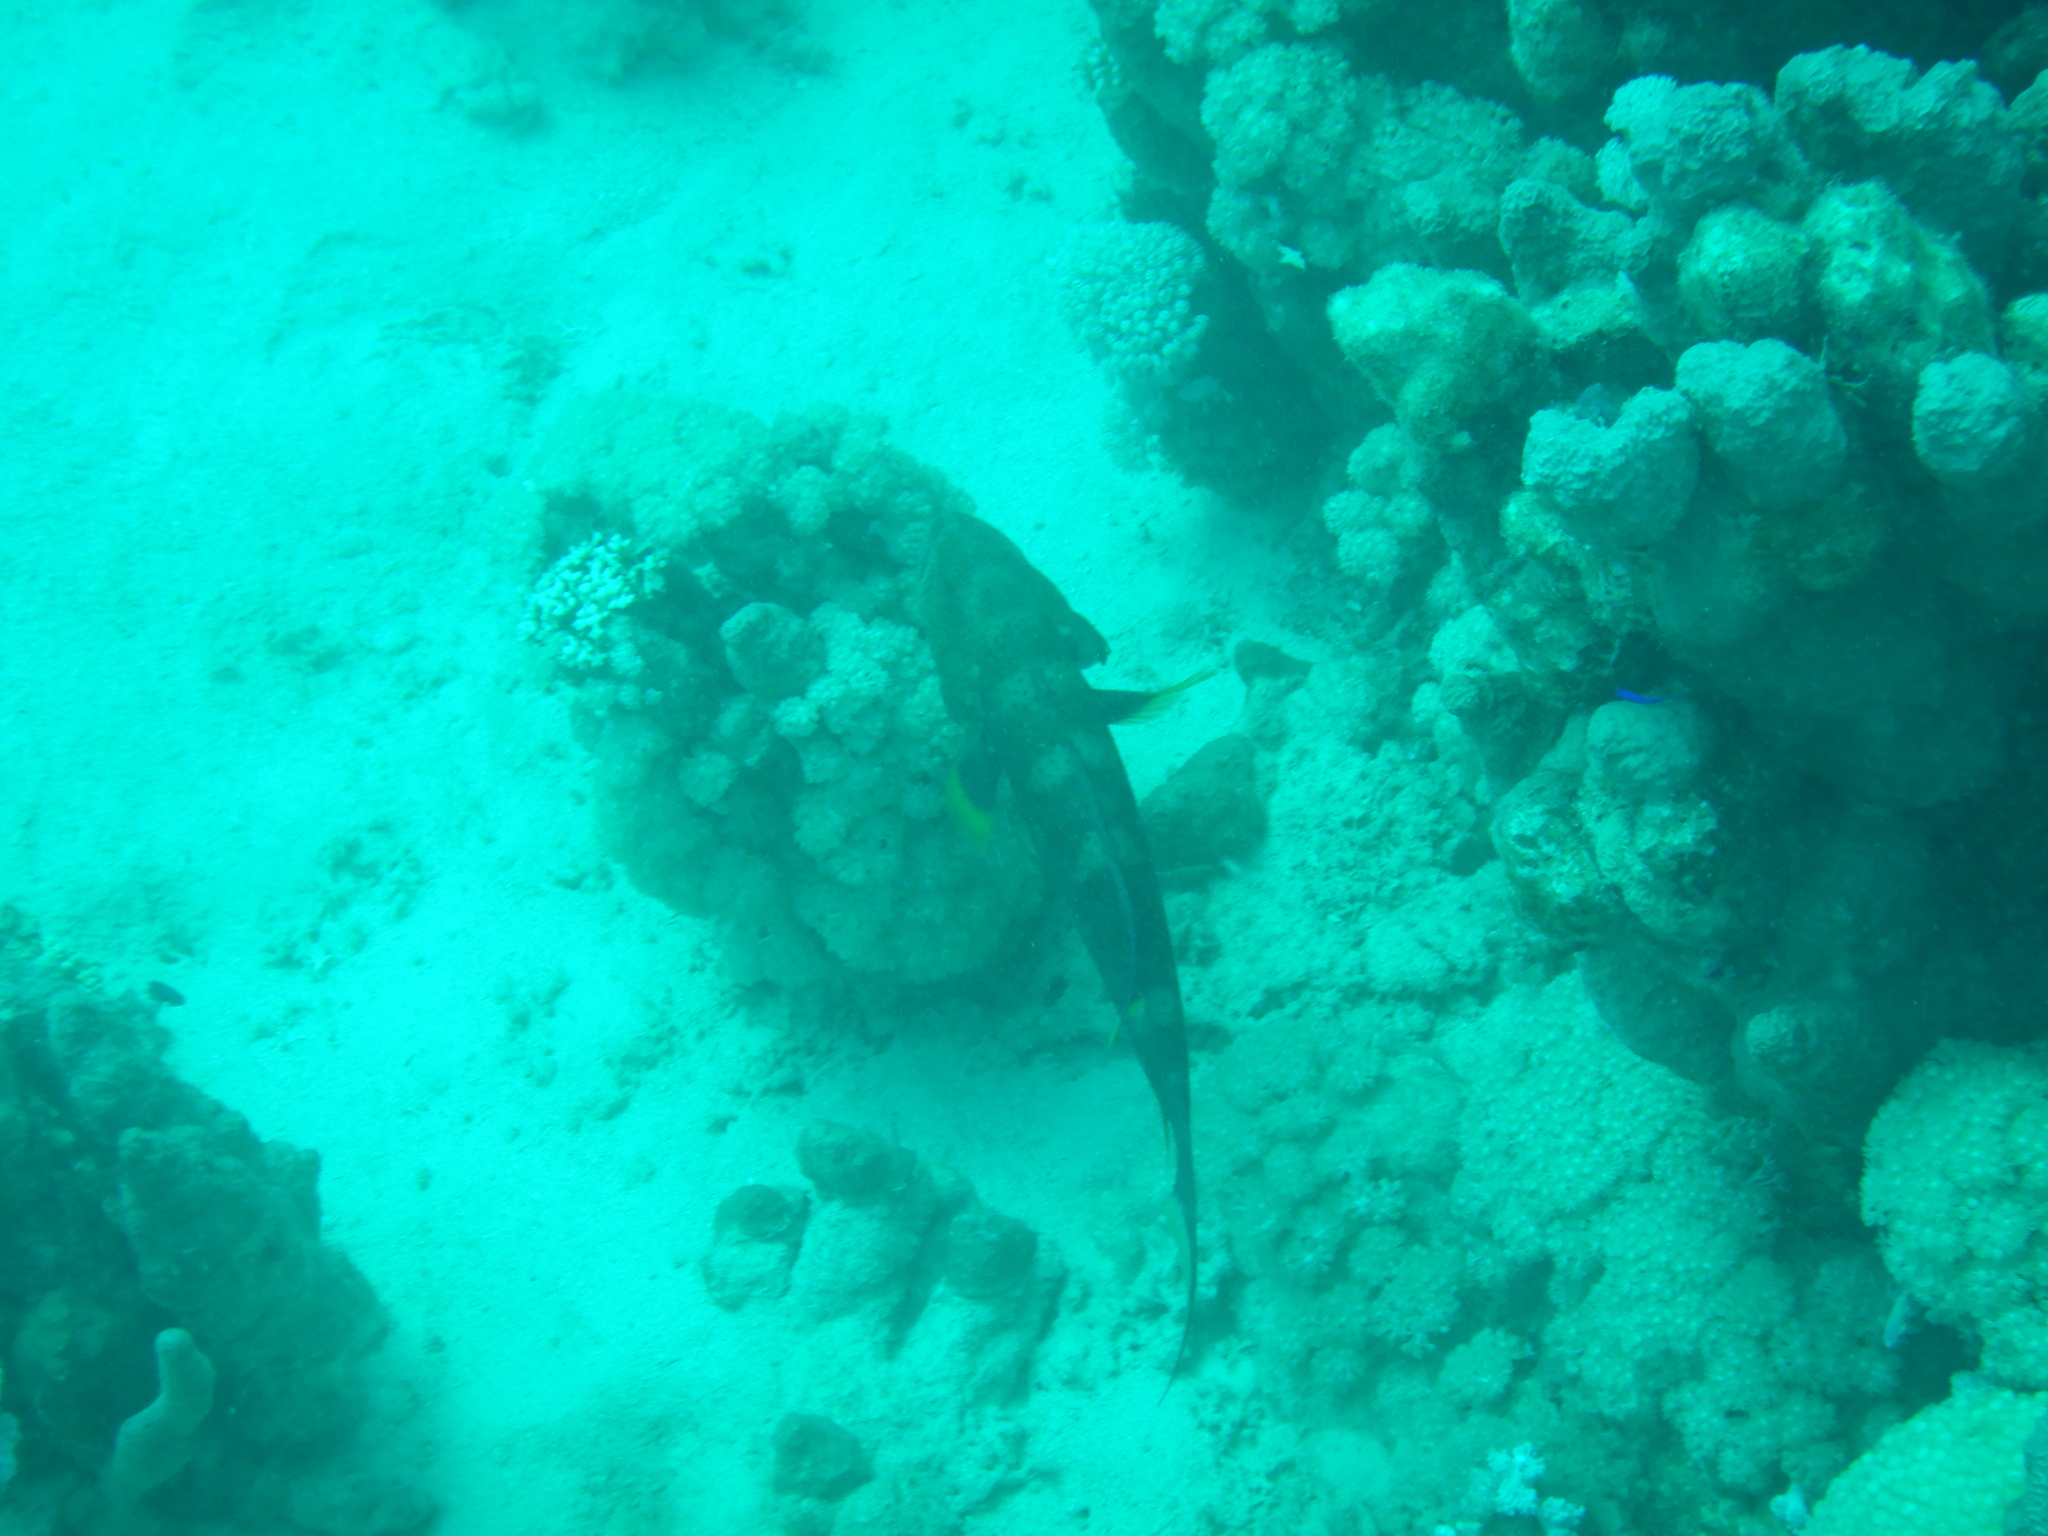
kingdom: Animalia
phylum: Chordata
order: Perciformes
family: Serranidae
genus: Variola
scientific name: Variola louti
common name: Yellow-edged lyretail
